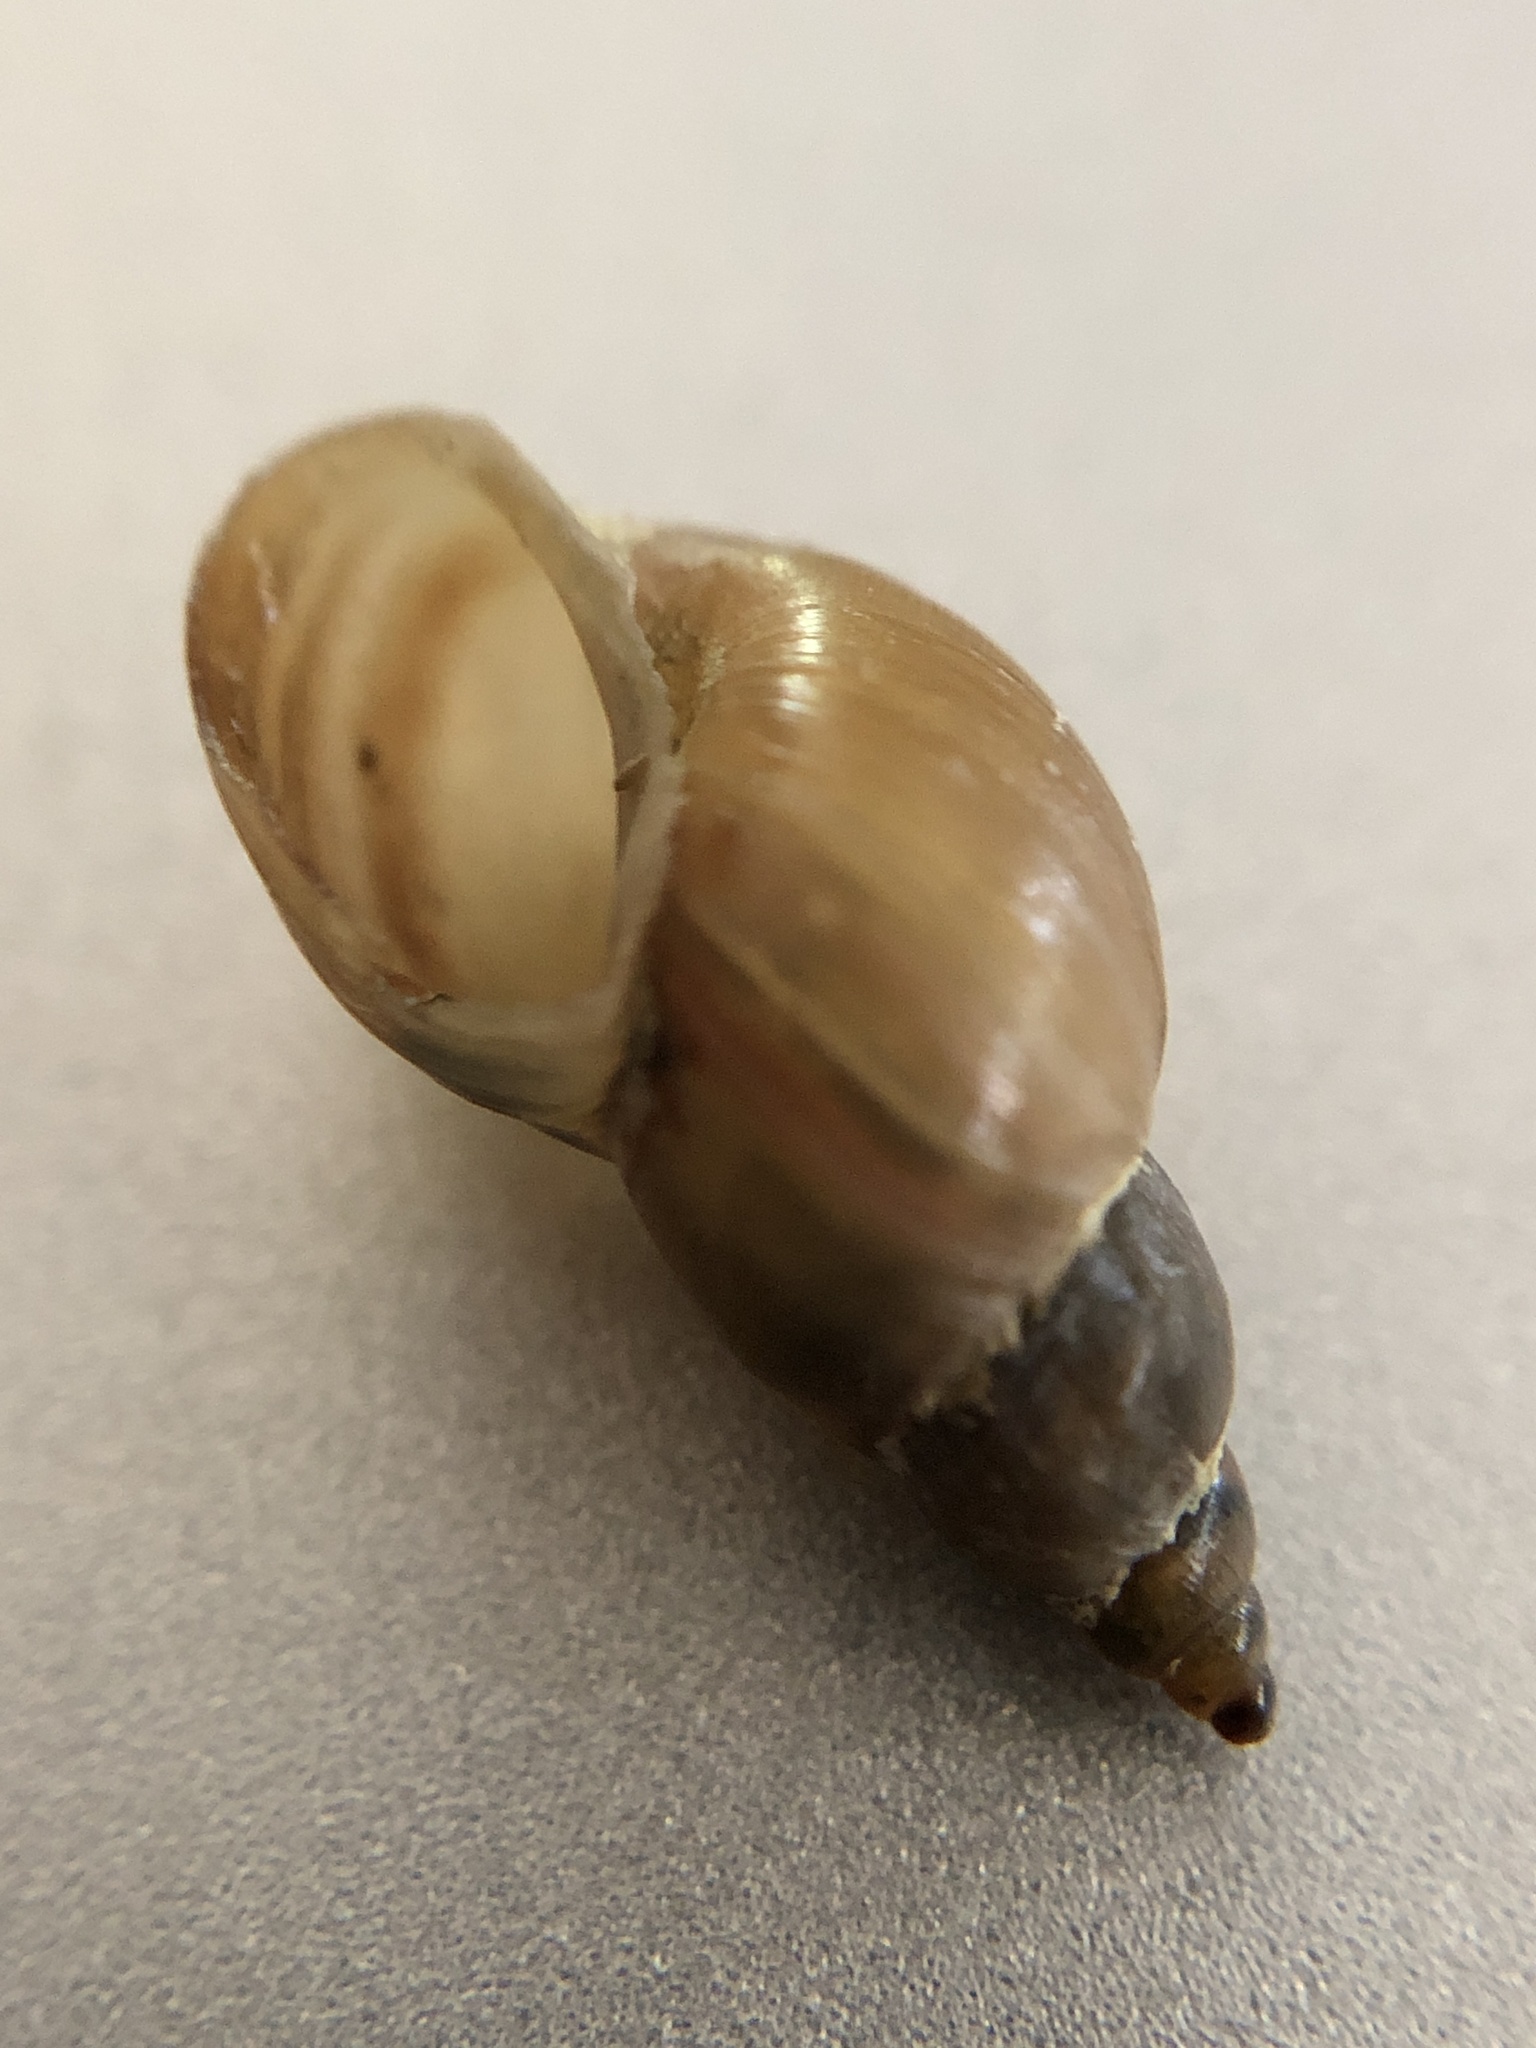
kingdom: Animalia
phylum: Mollusca
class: Gastropoda
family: Lymnaeidae
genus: Ladislavella
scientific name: Ladislavella elodes
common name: Marsh pondsnail
